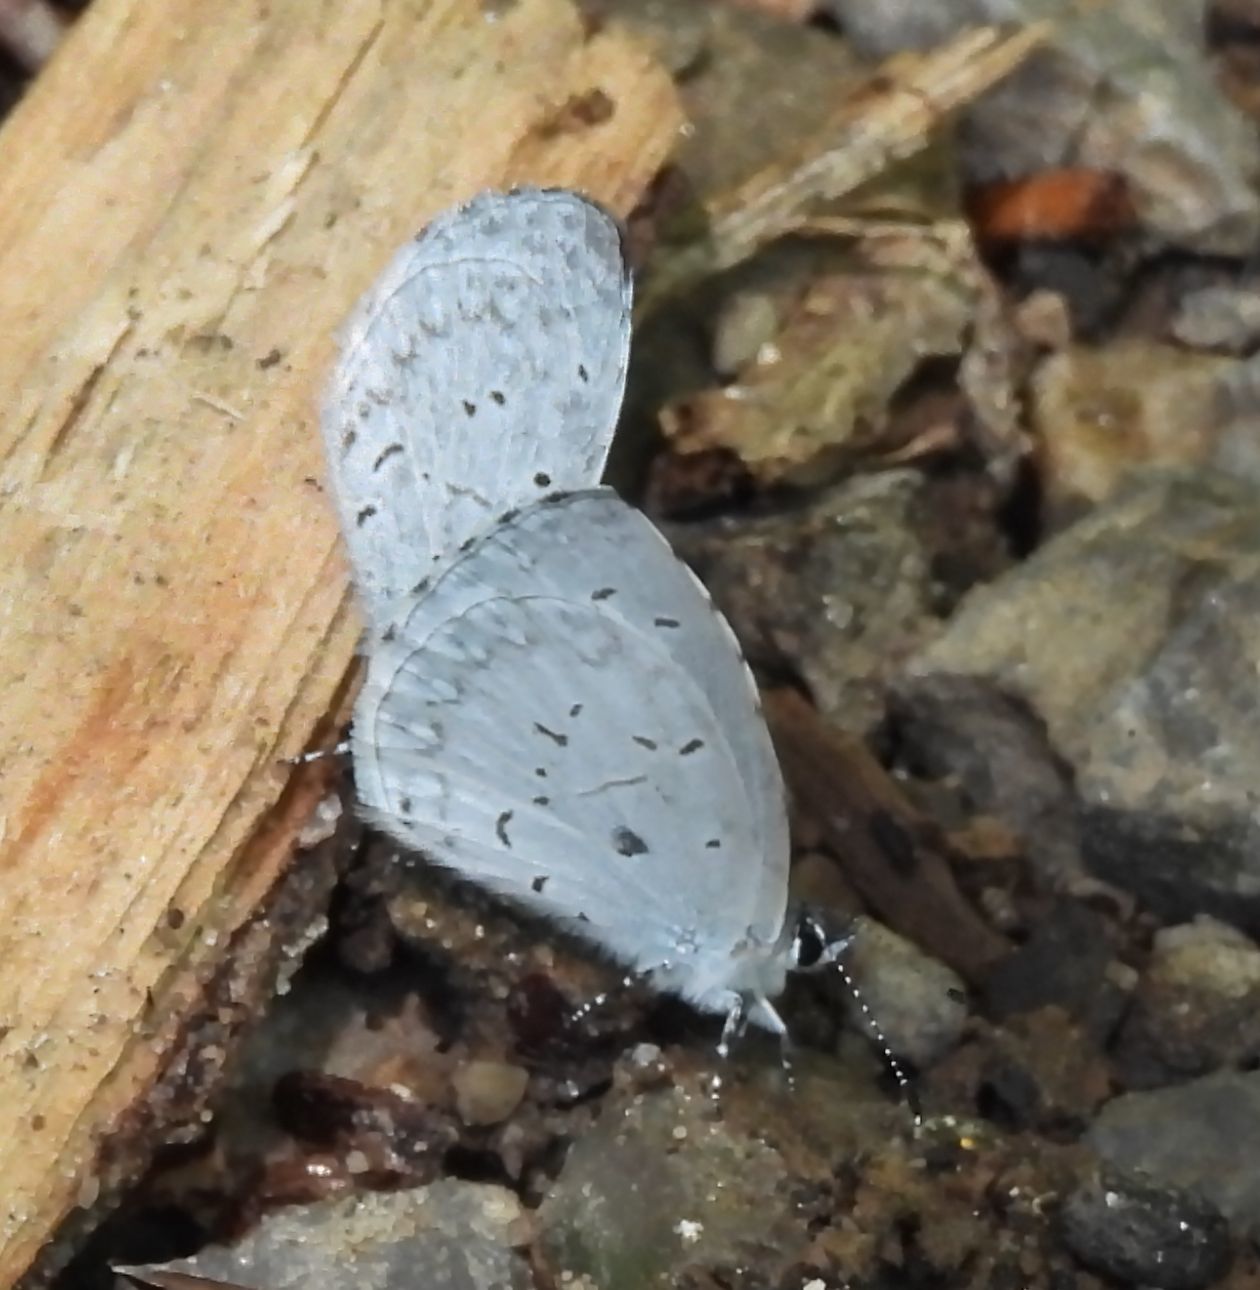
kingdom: Animalia
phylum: Arthropoda
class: Insecta
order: Lepidoptera
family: Lycaenidae
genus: Cyaniris
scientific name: Cyaniris neglecta
